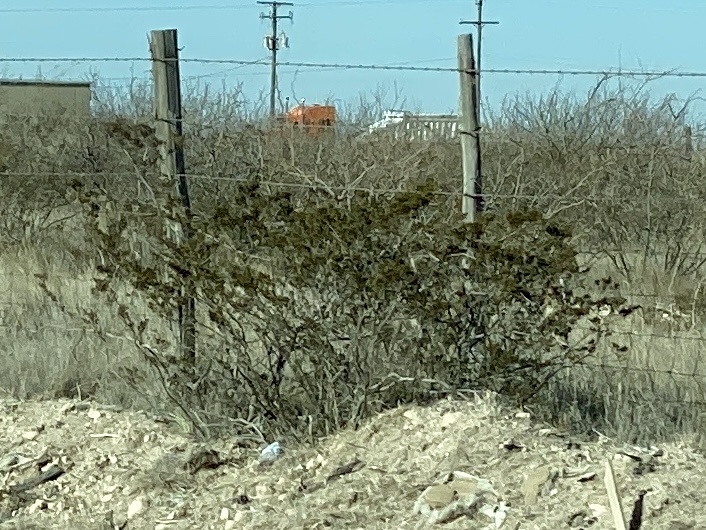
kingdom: Plantae
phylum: Tracheophyta
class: Magnoliopsida
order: Zygophyllales
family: Zygophyllaceae
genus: Larrea
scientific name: Larrea tridentata
